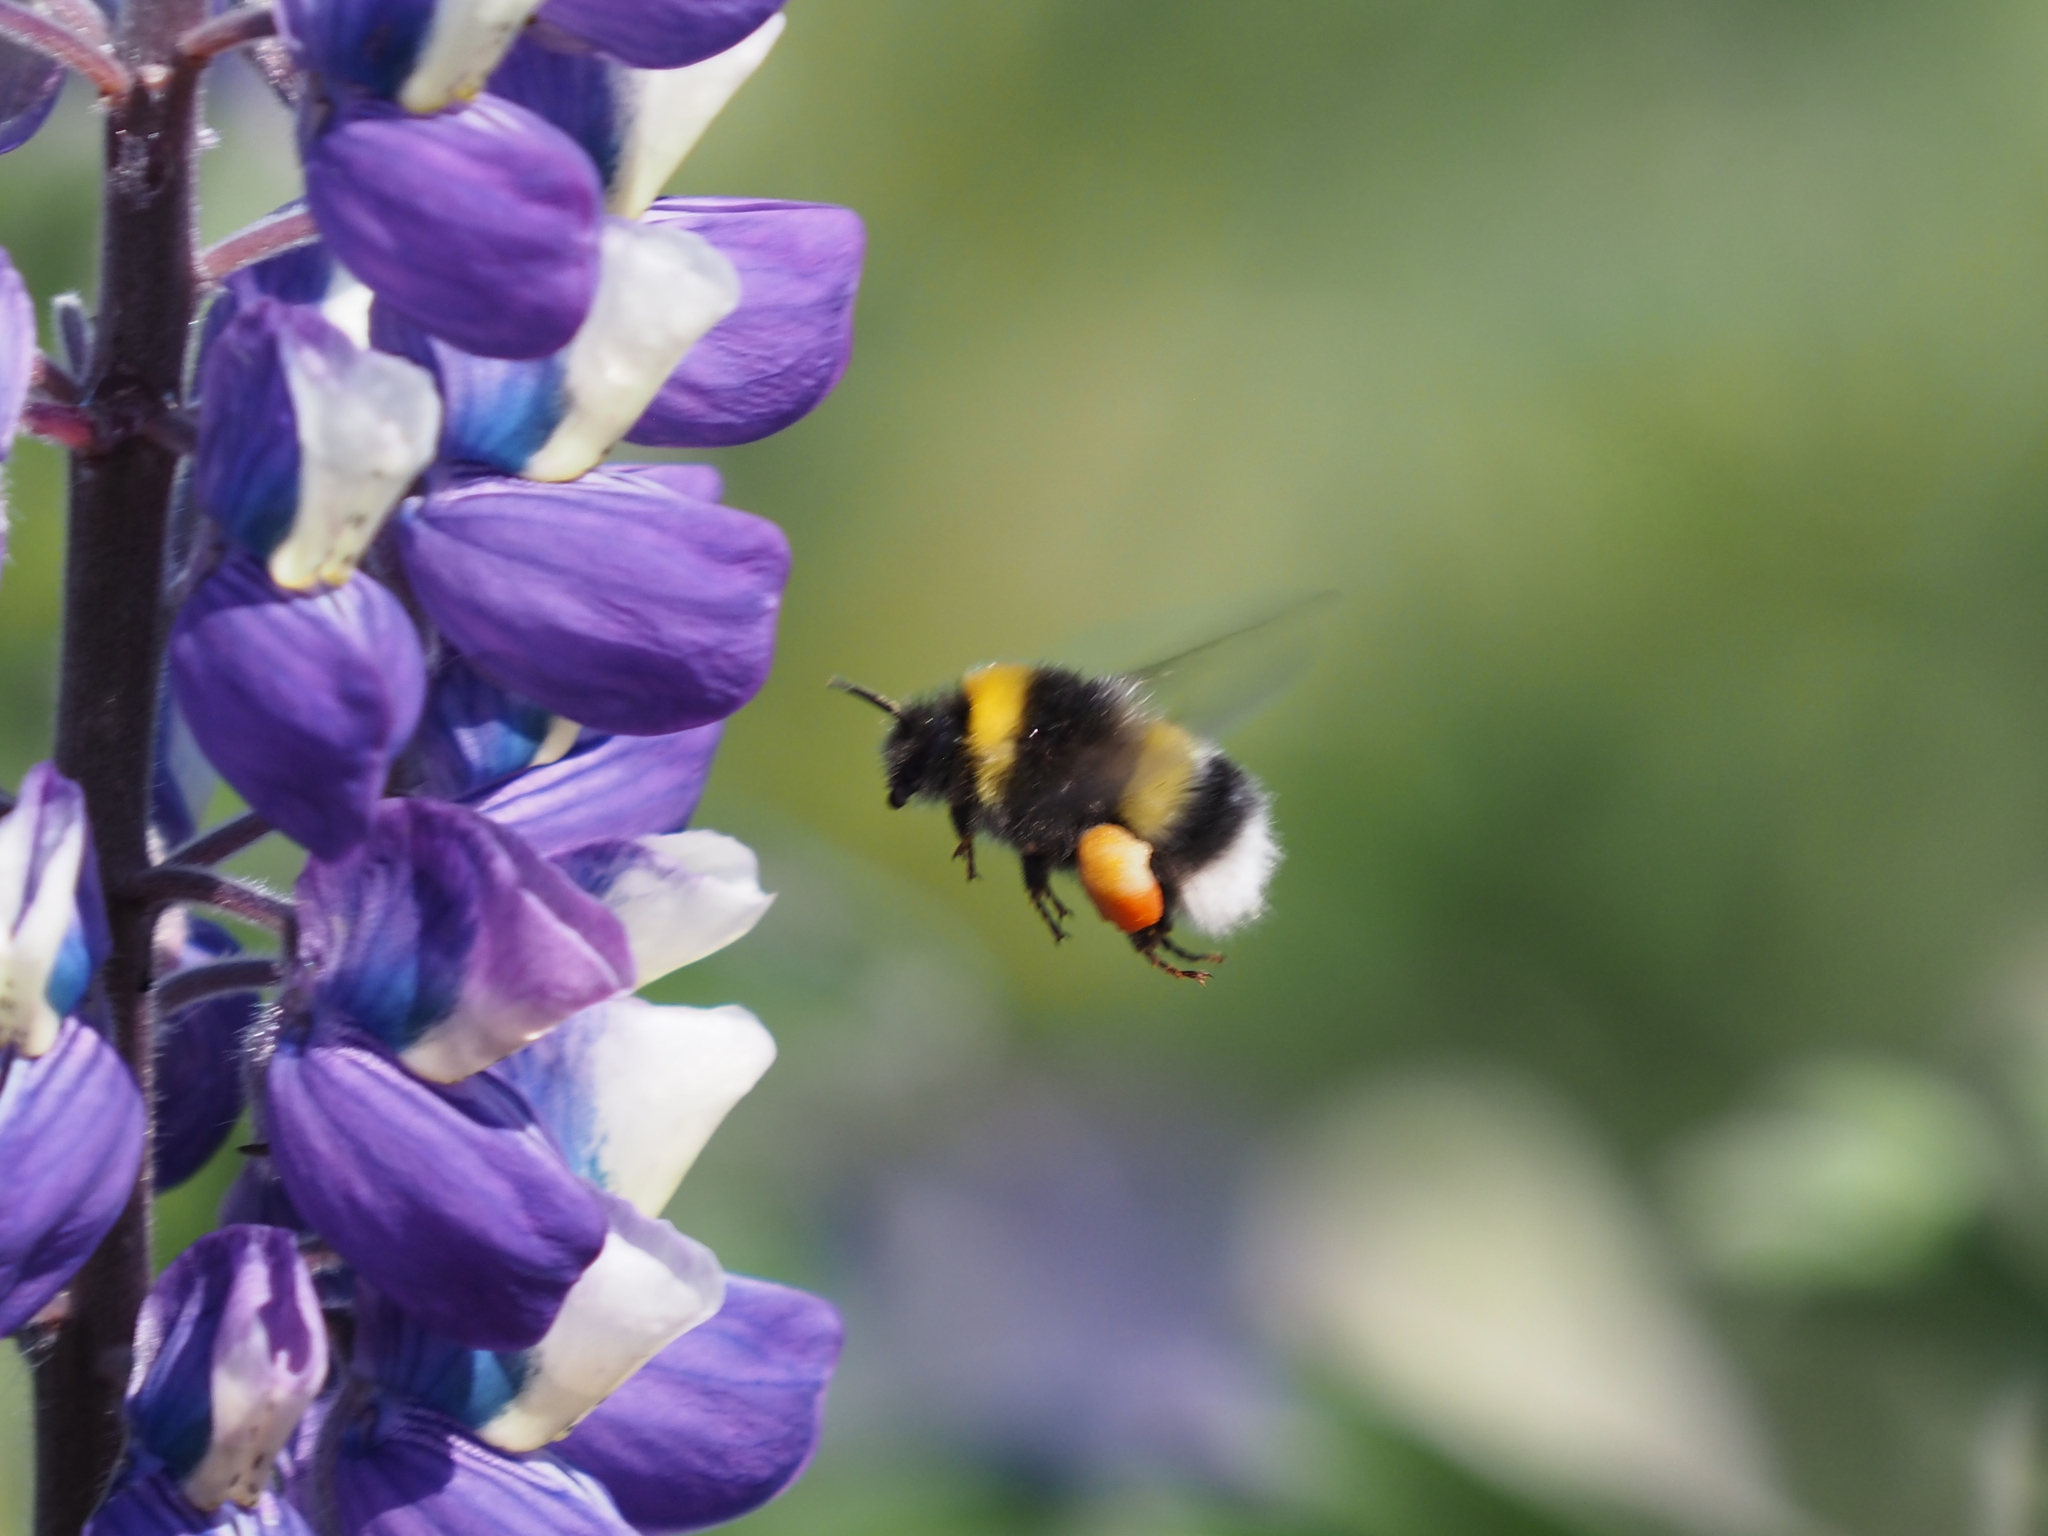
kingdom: Animalia
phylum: Arthropoda
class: Insecta
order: Hymenoptera
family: Apidae
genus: Bombus
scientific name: Bombus cryptarum
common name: Cryptic bumblebee
